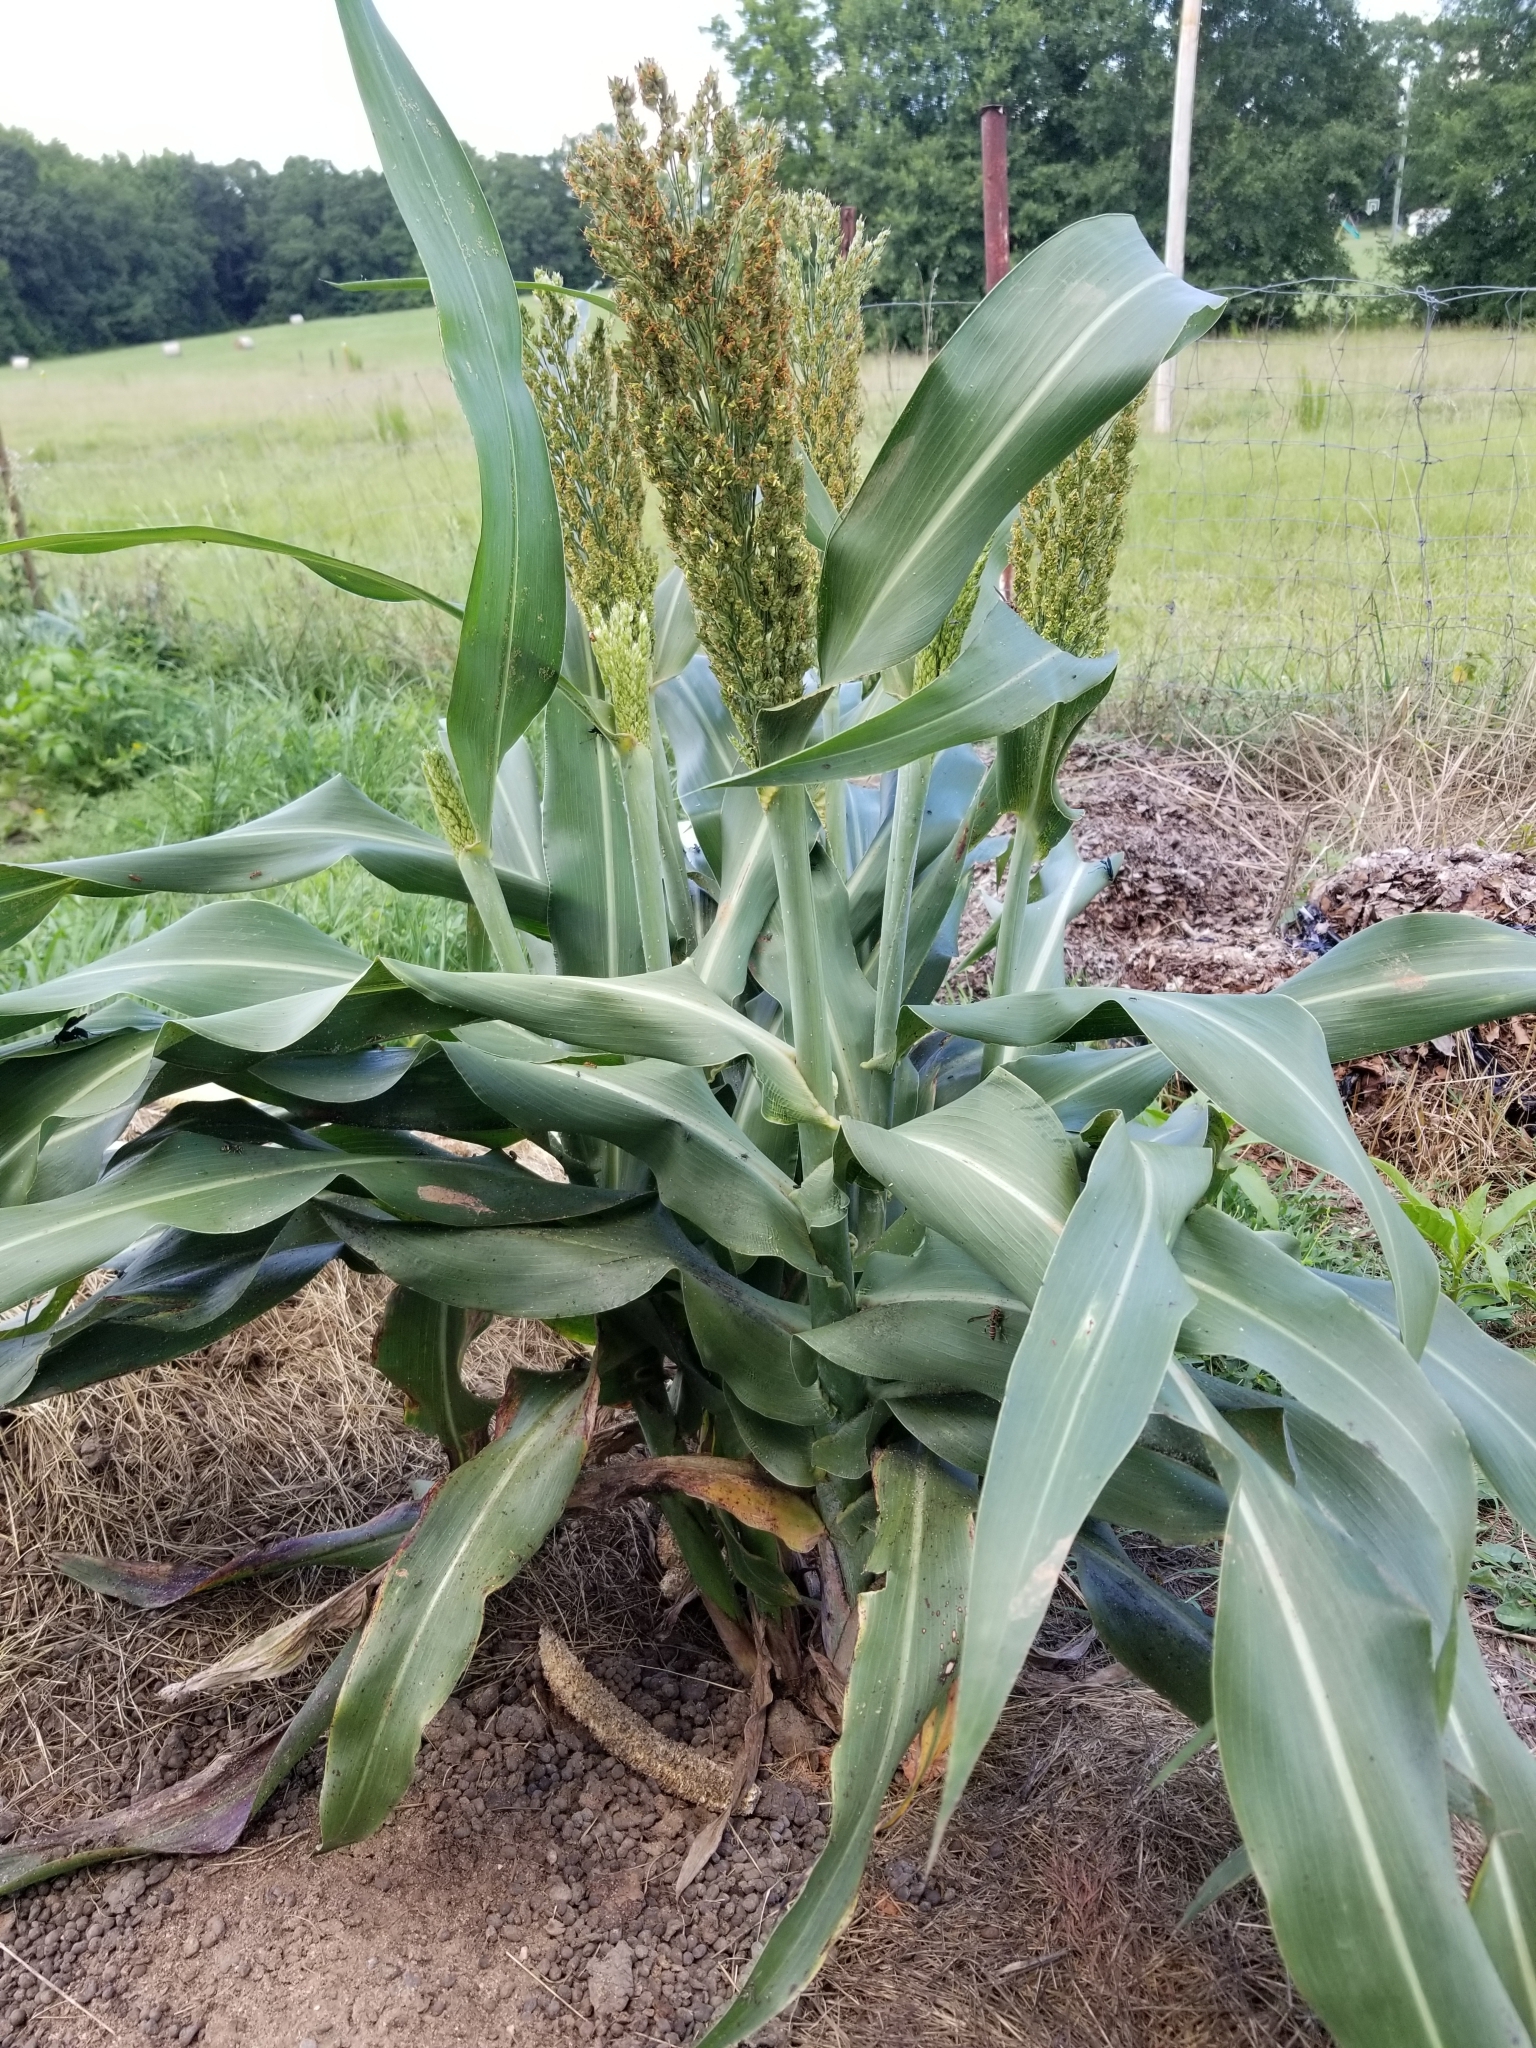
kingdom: Plantae
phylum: Tracheophyta
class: Liliopsida
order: Poales
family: Poaceae
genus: Sorghum
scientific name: Sorghum bicolor
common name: Sorghum
